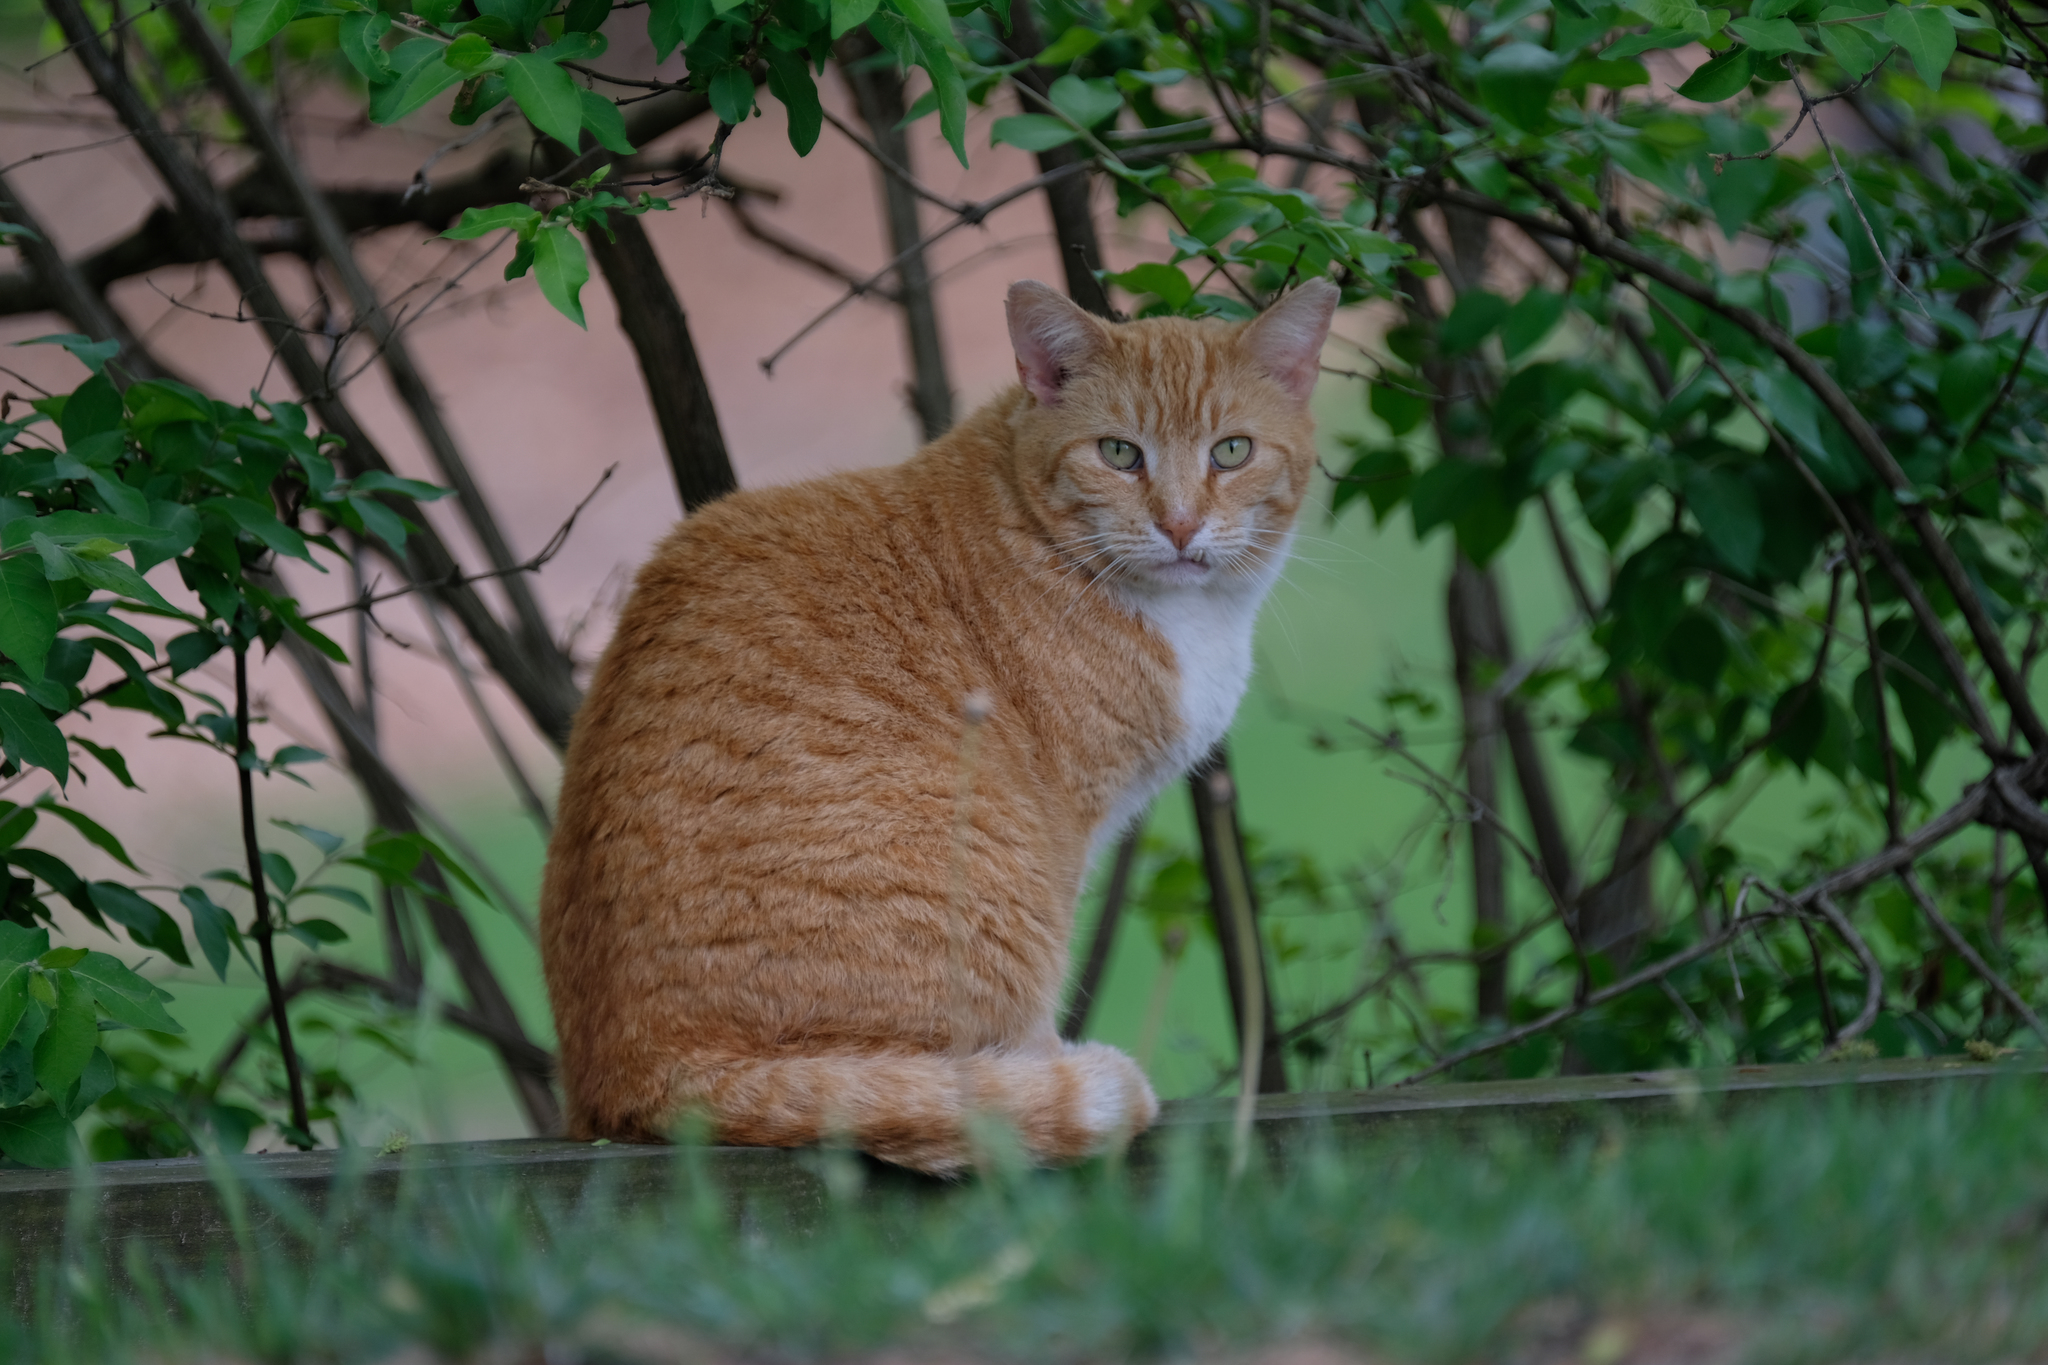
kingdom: Animalia
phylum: Chordata
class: Mammalia
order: Carnivora
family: Felidae
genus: Felis
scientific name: Felis catus
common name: Domestic cat
